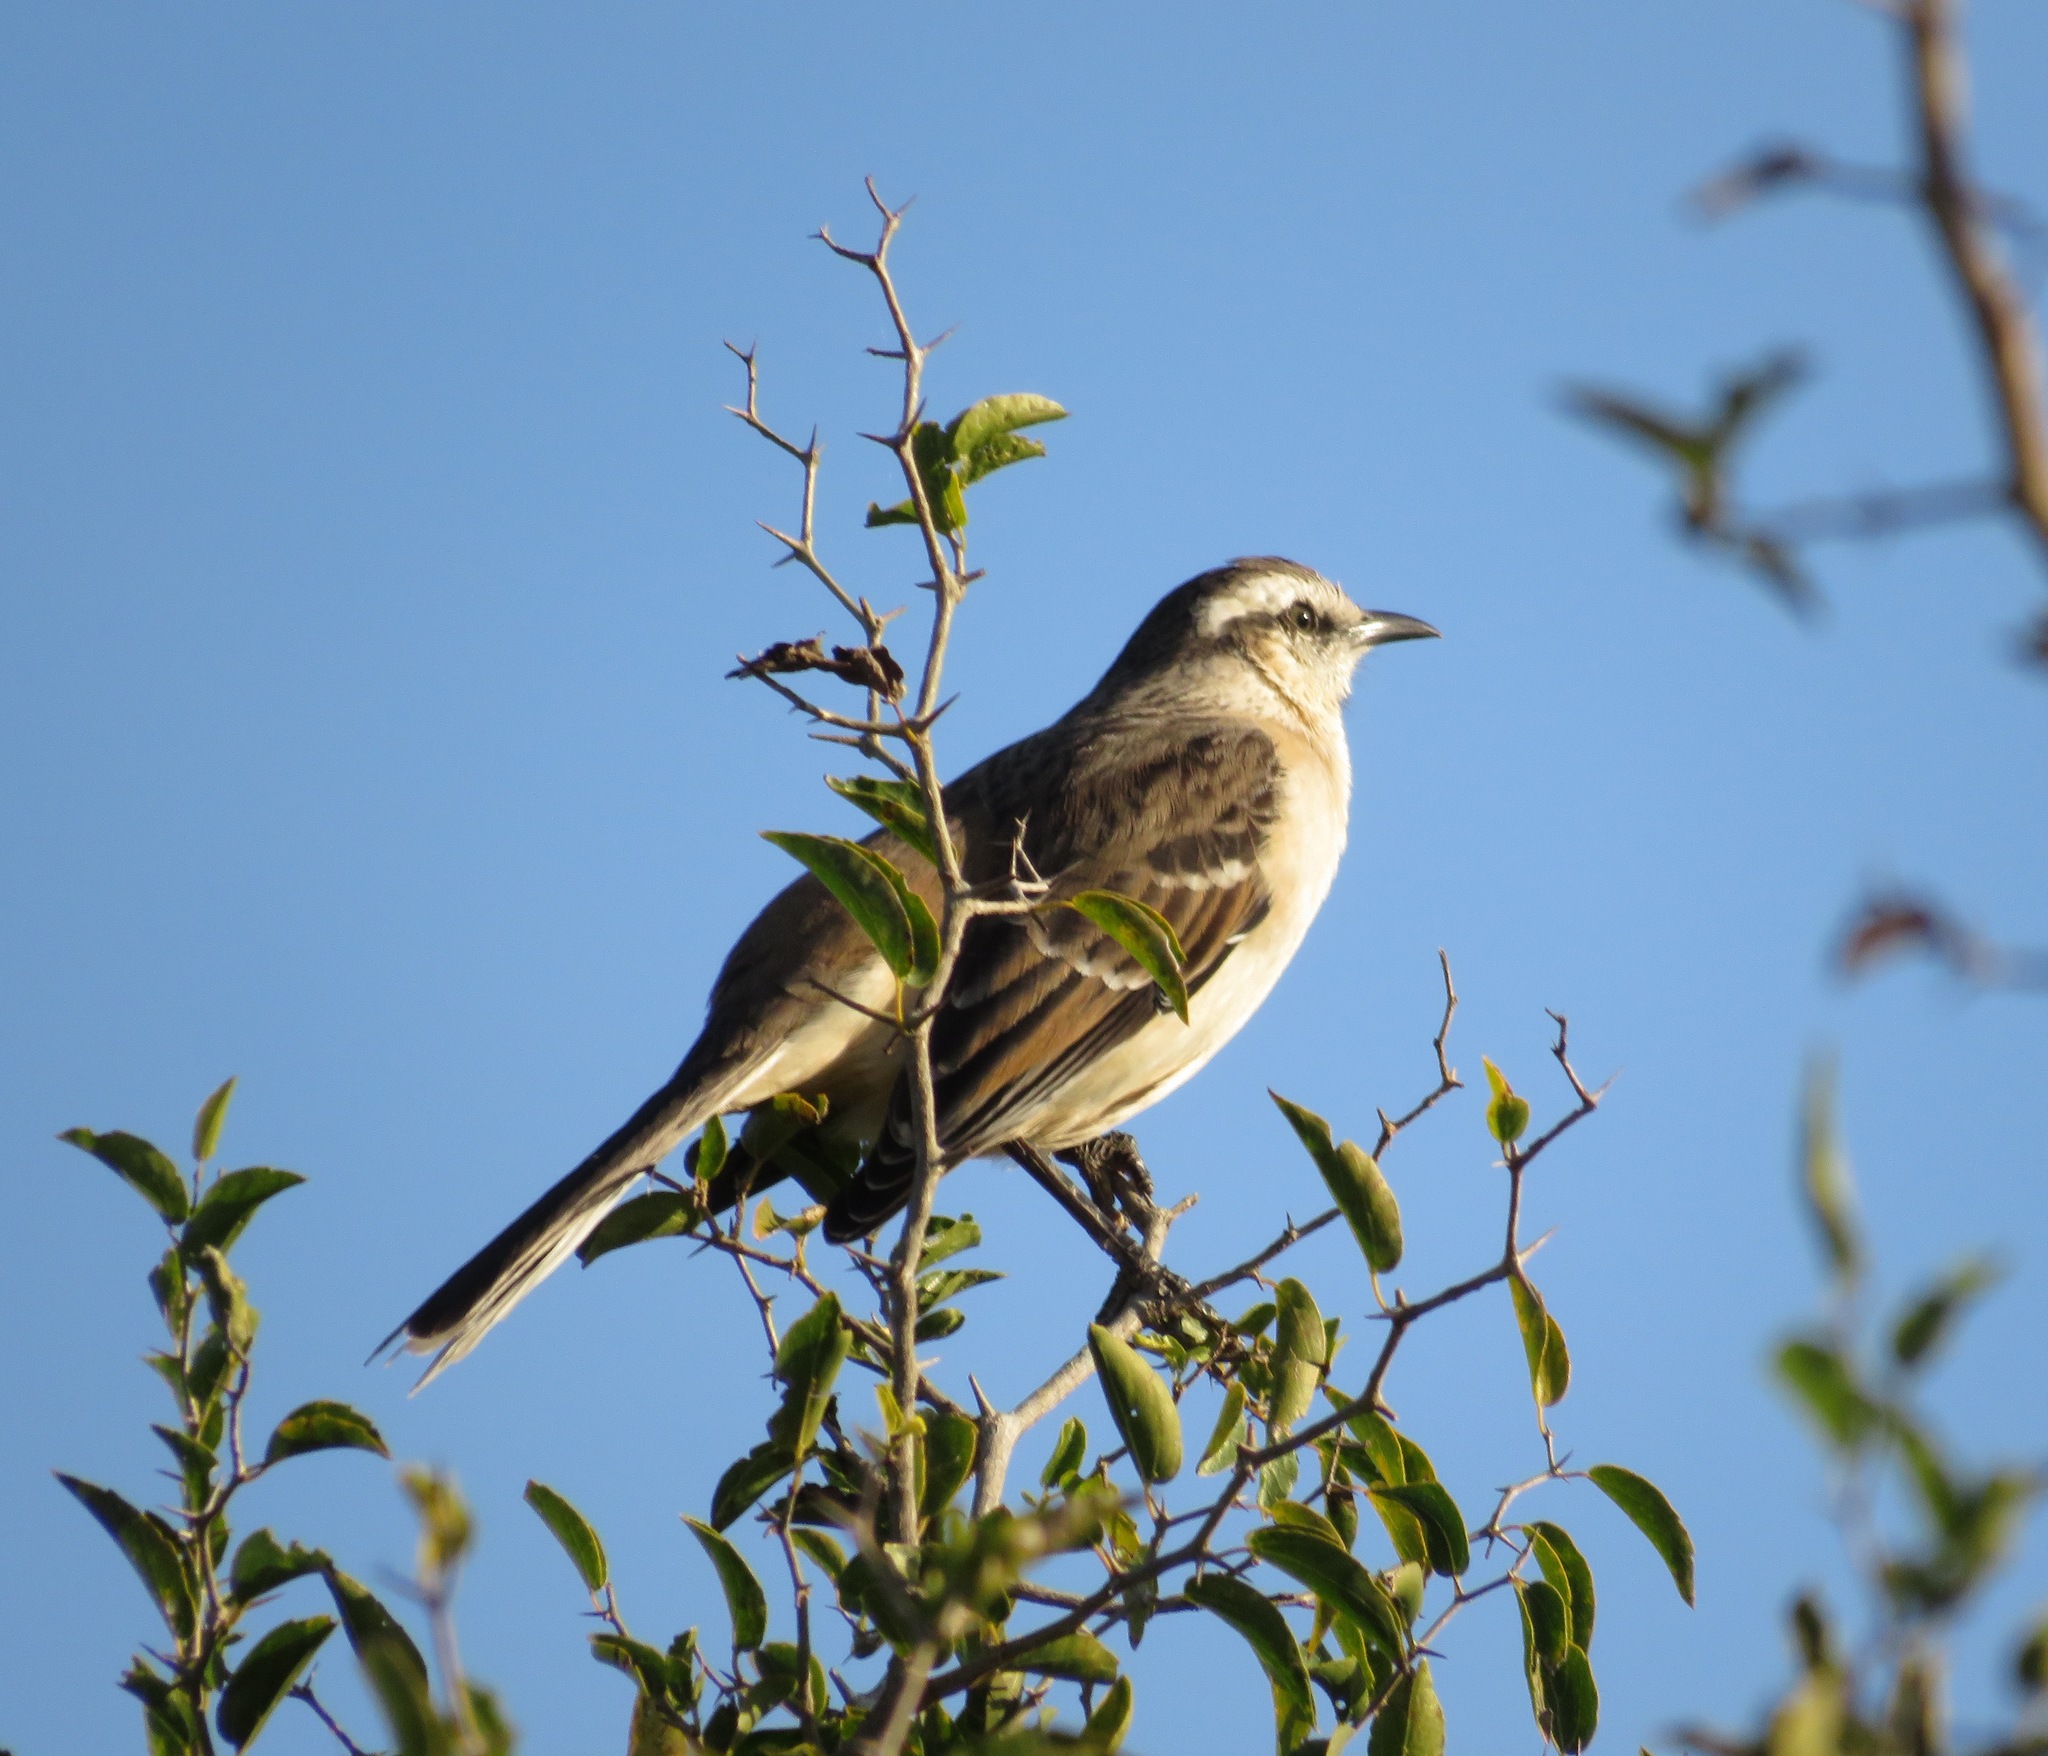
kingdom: Animalia
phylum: Chordata
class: Aves
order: Passeriformes
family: Mimidae
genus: Mimus
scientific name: Mimus saturninus
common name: Chalk-browed mockingbird
